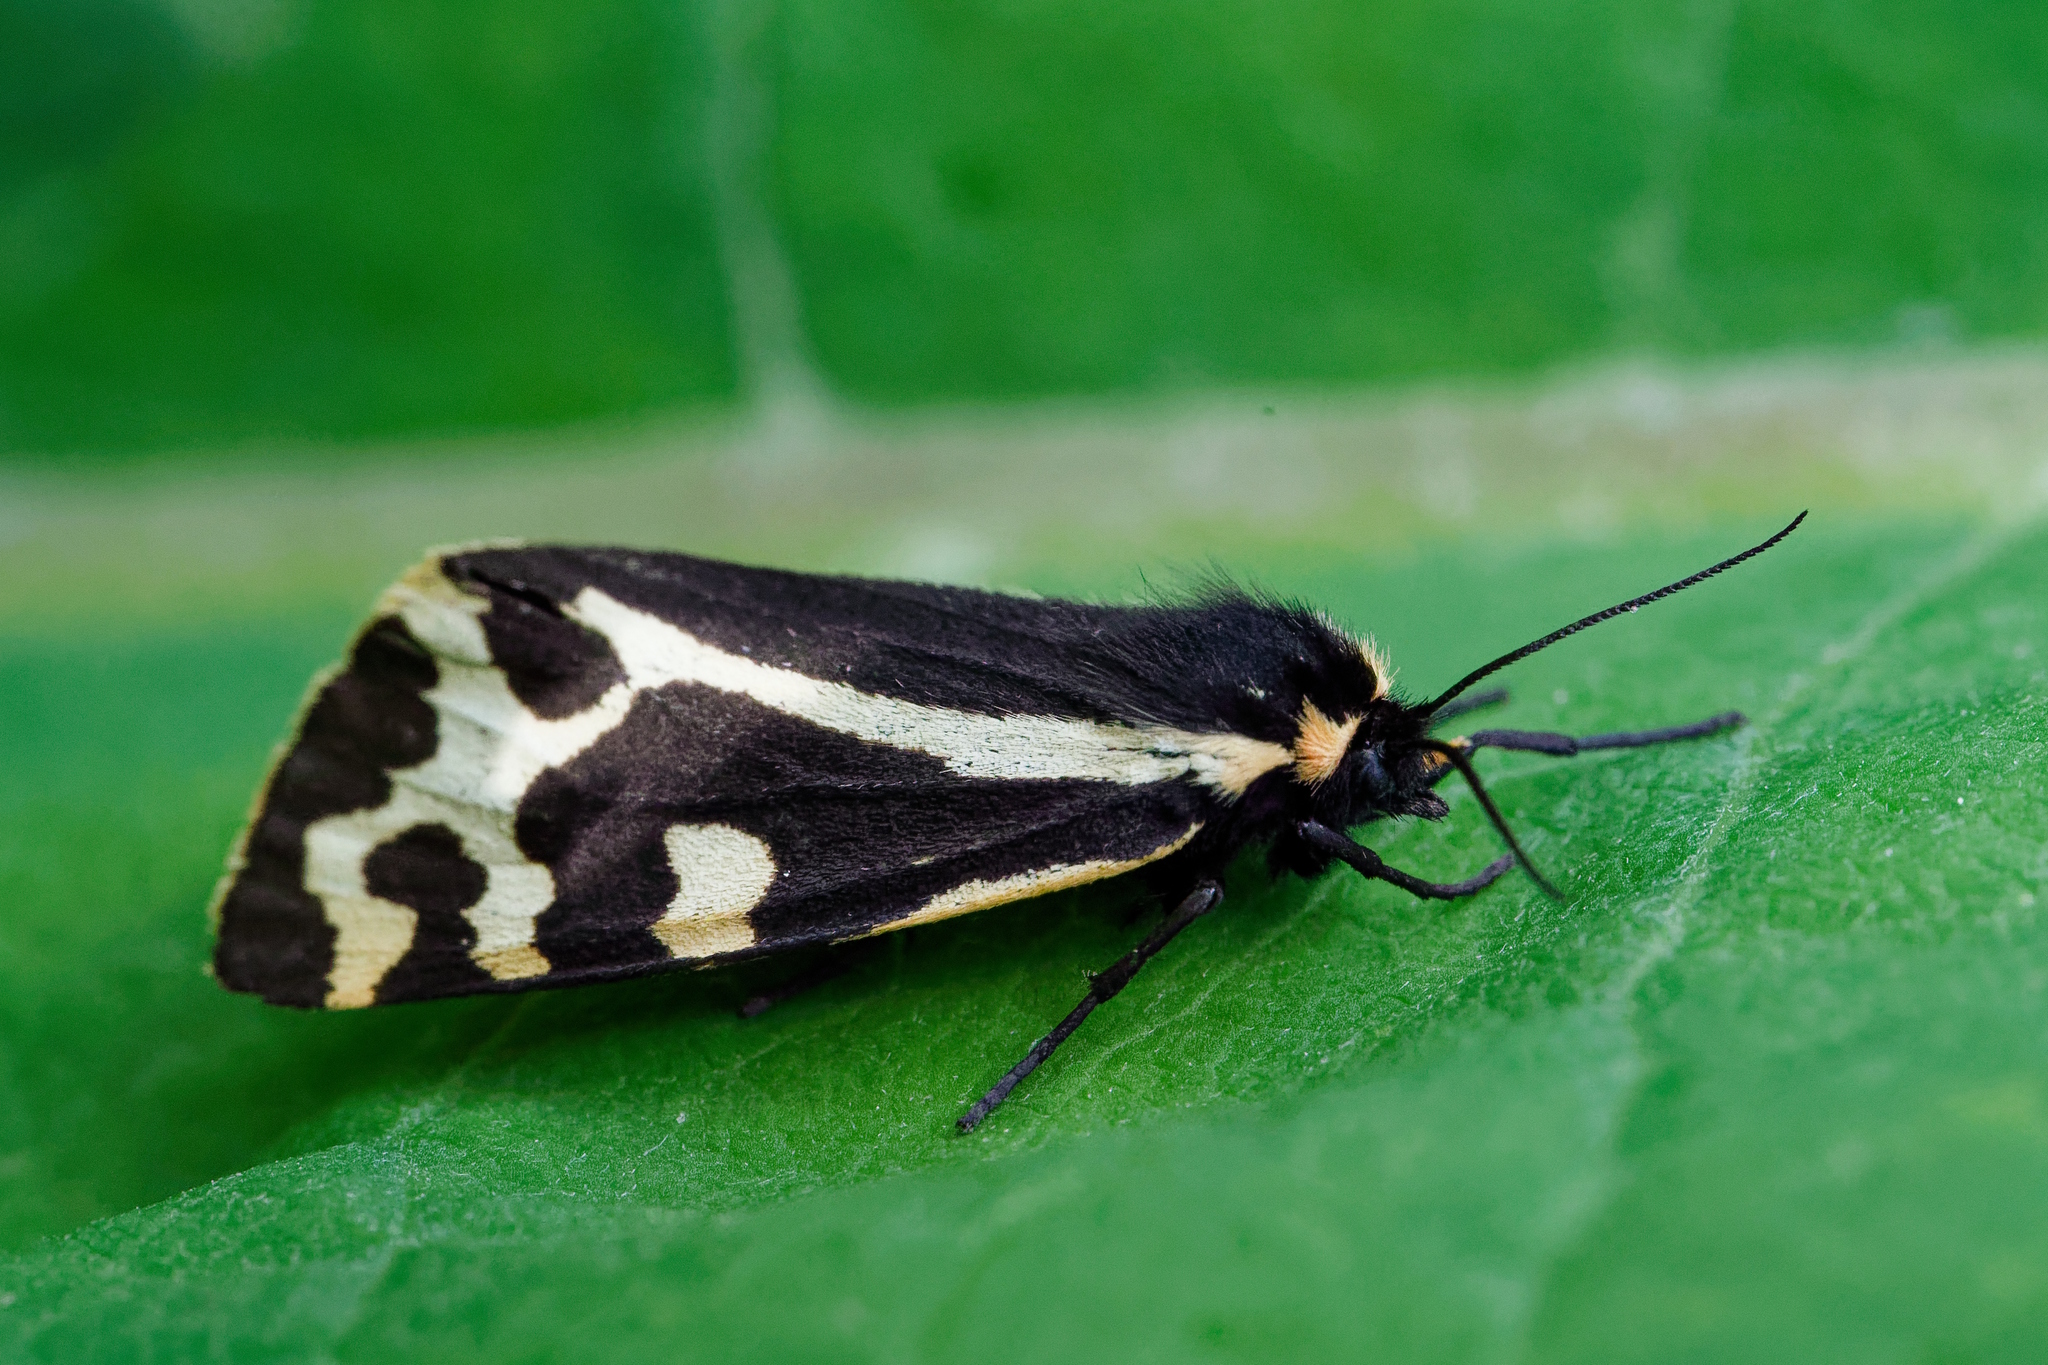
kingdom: Animalia
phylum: Arthropoda
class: Insecta
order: Lepidoptera
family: Erebidae
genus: Parasemia
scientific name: Parasemia plantaginis
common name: Wood tiger
